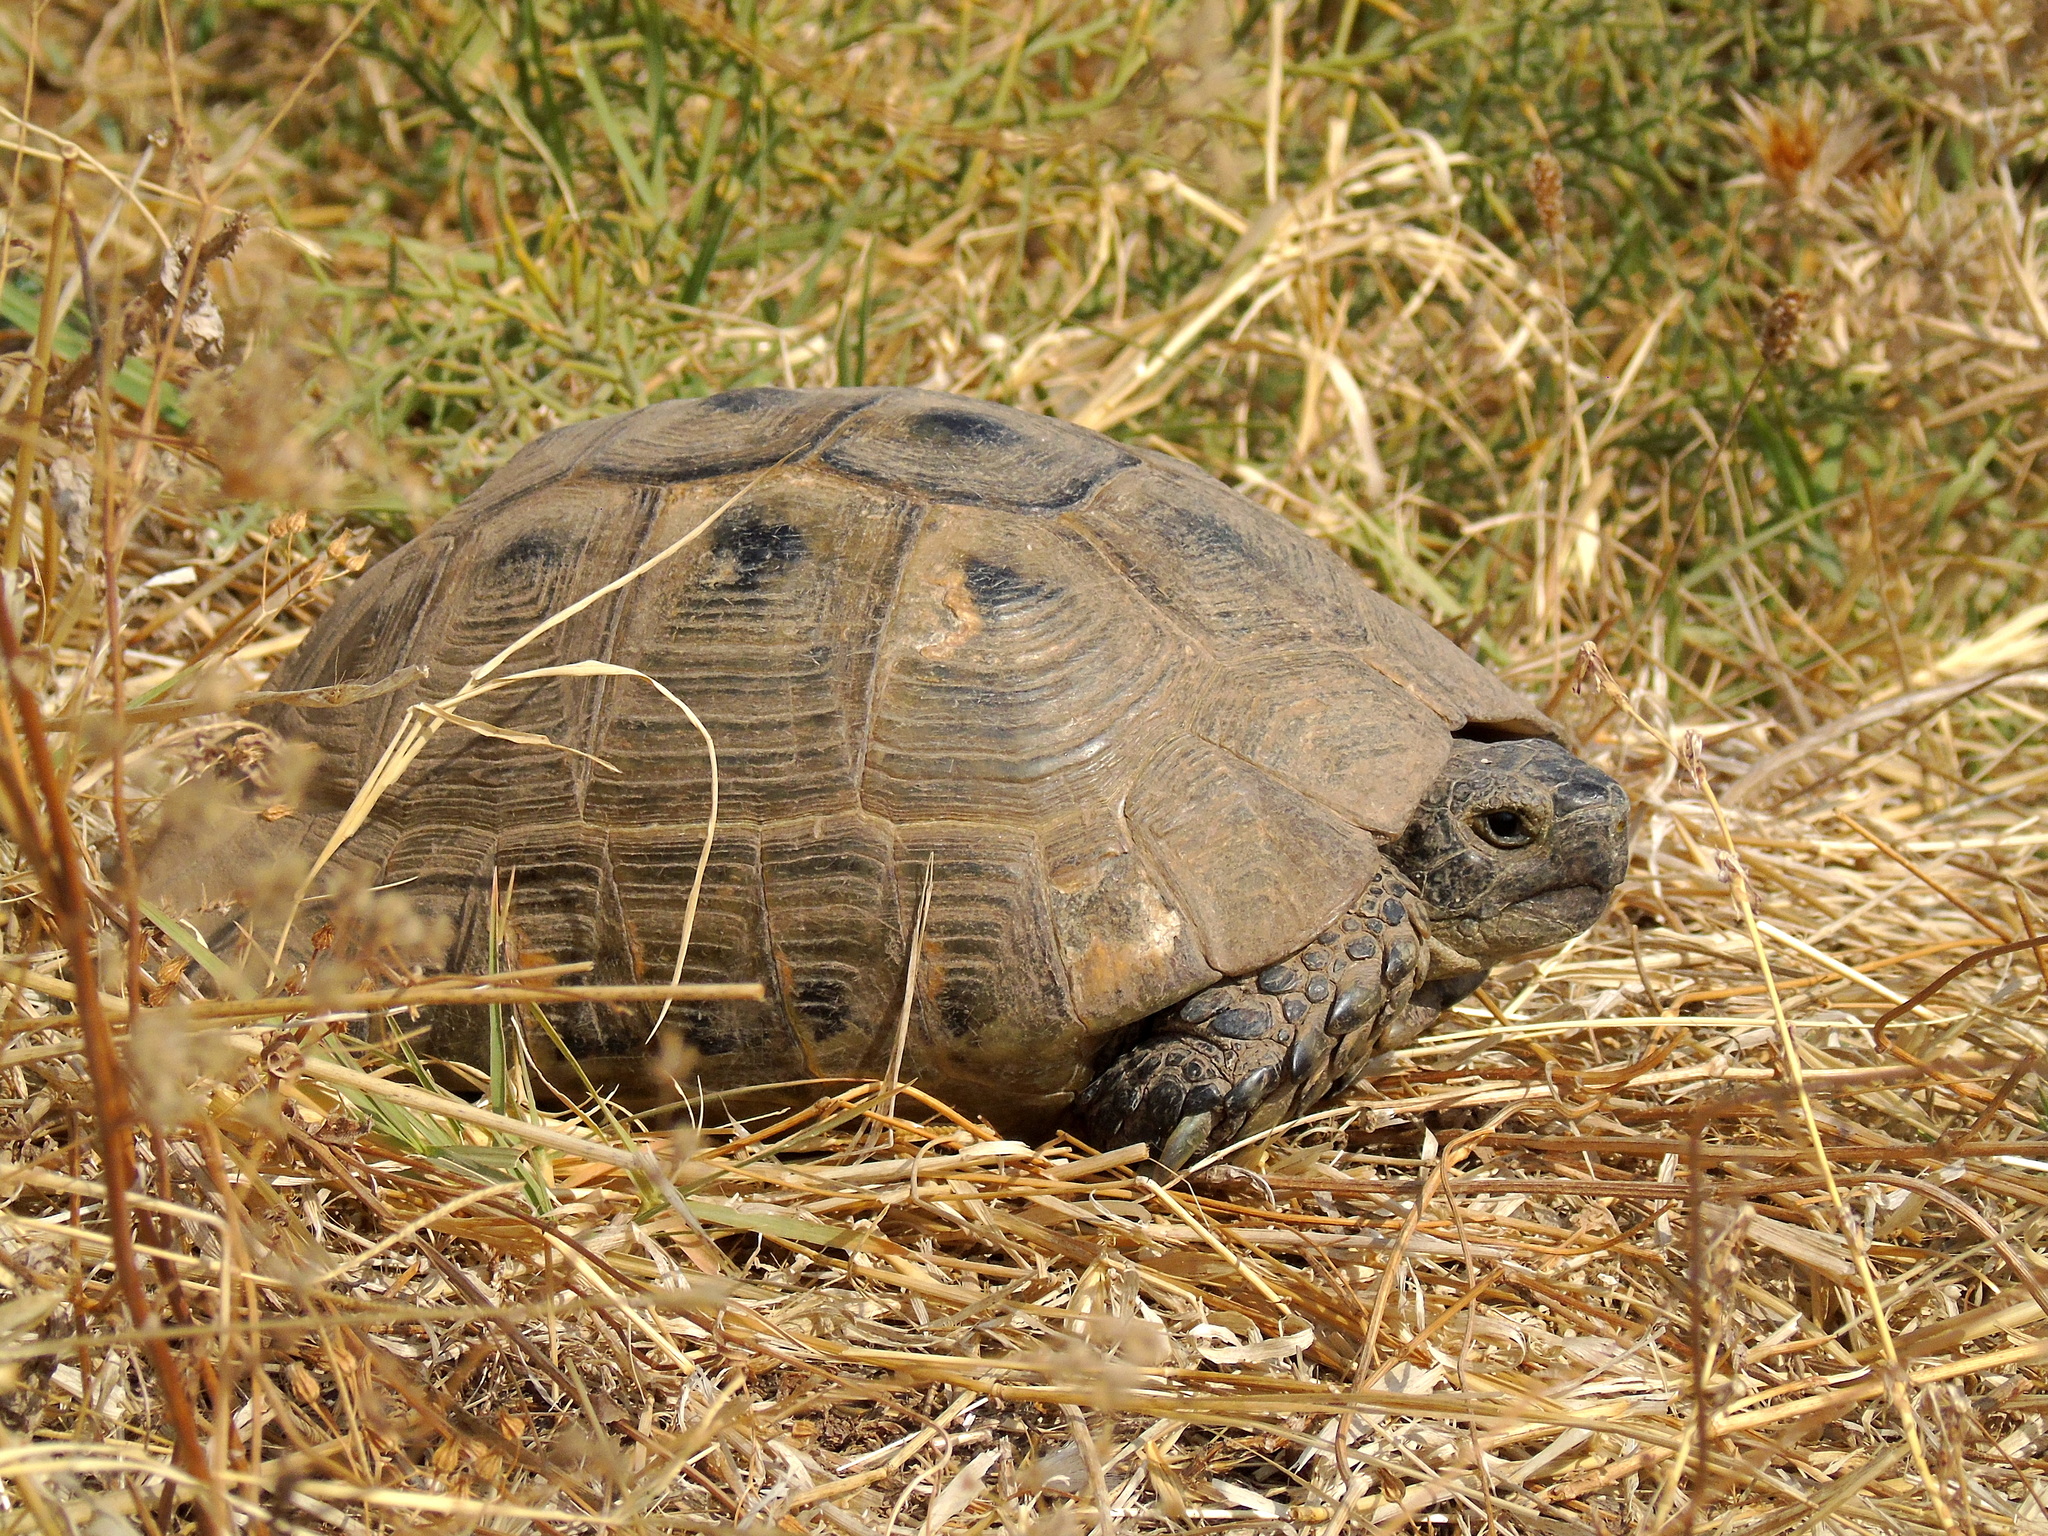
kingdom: Animalia
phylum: Chordata
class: Testudines
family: Testudinidae
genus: Testudo
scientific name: Testudo graeca
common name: Common tortoise
